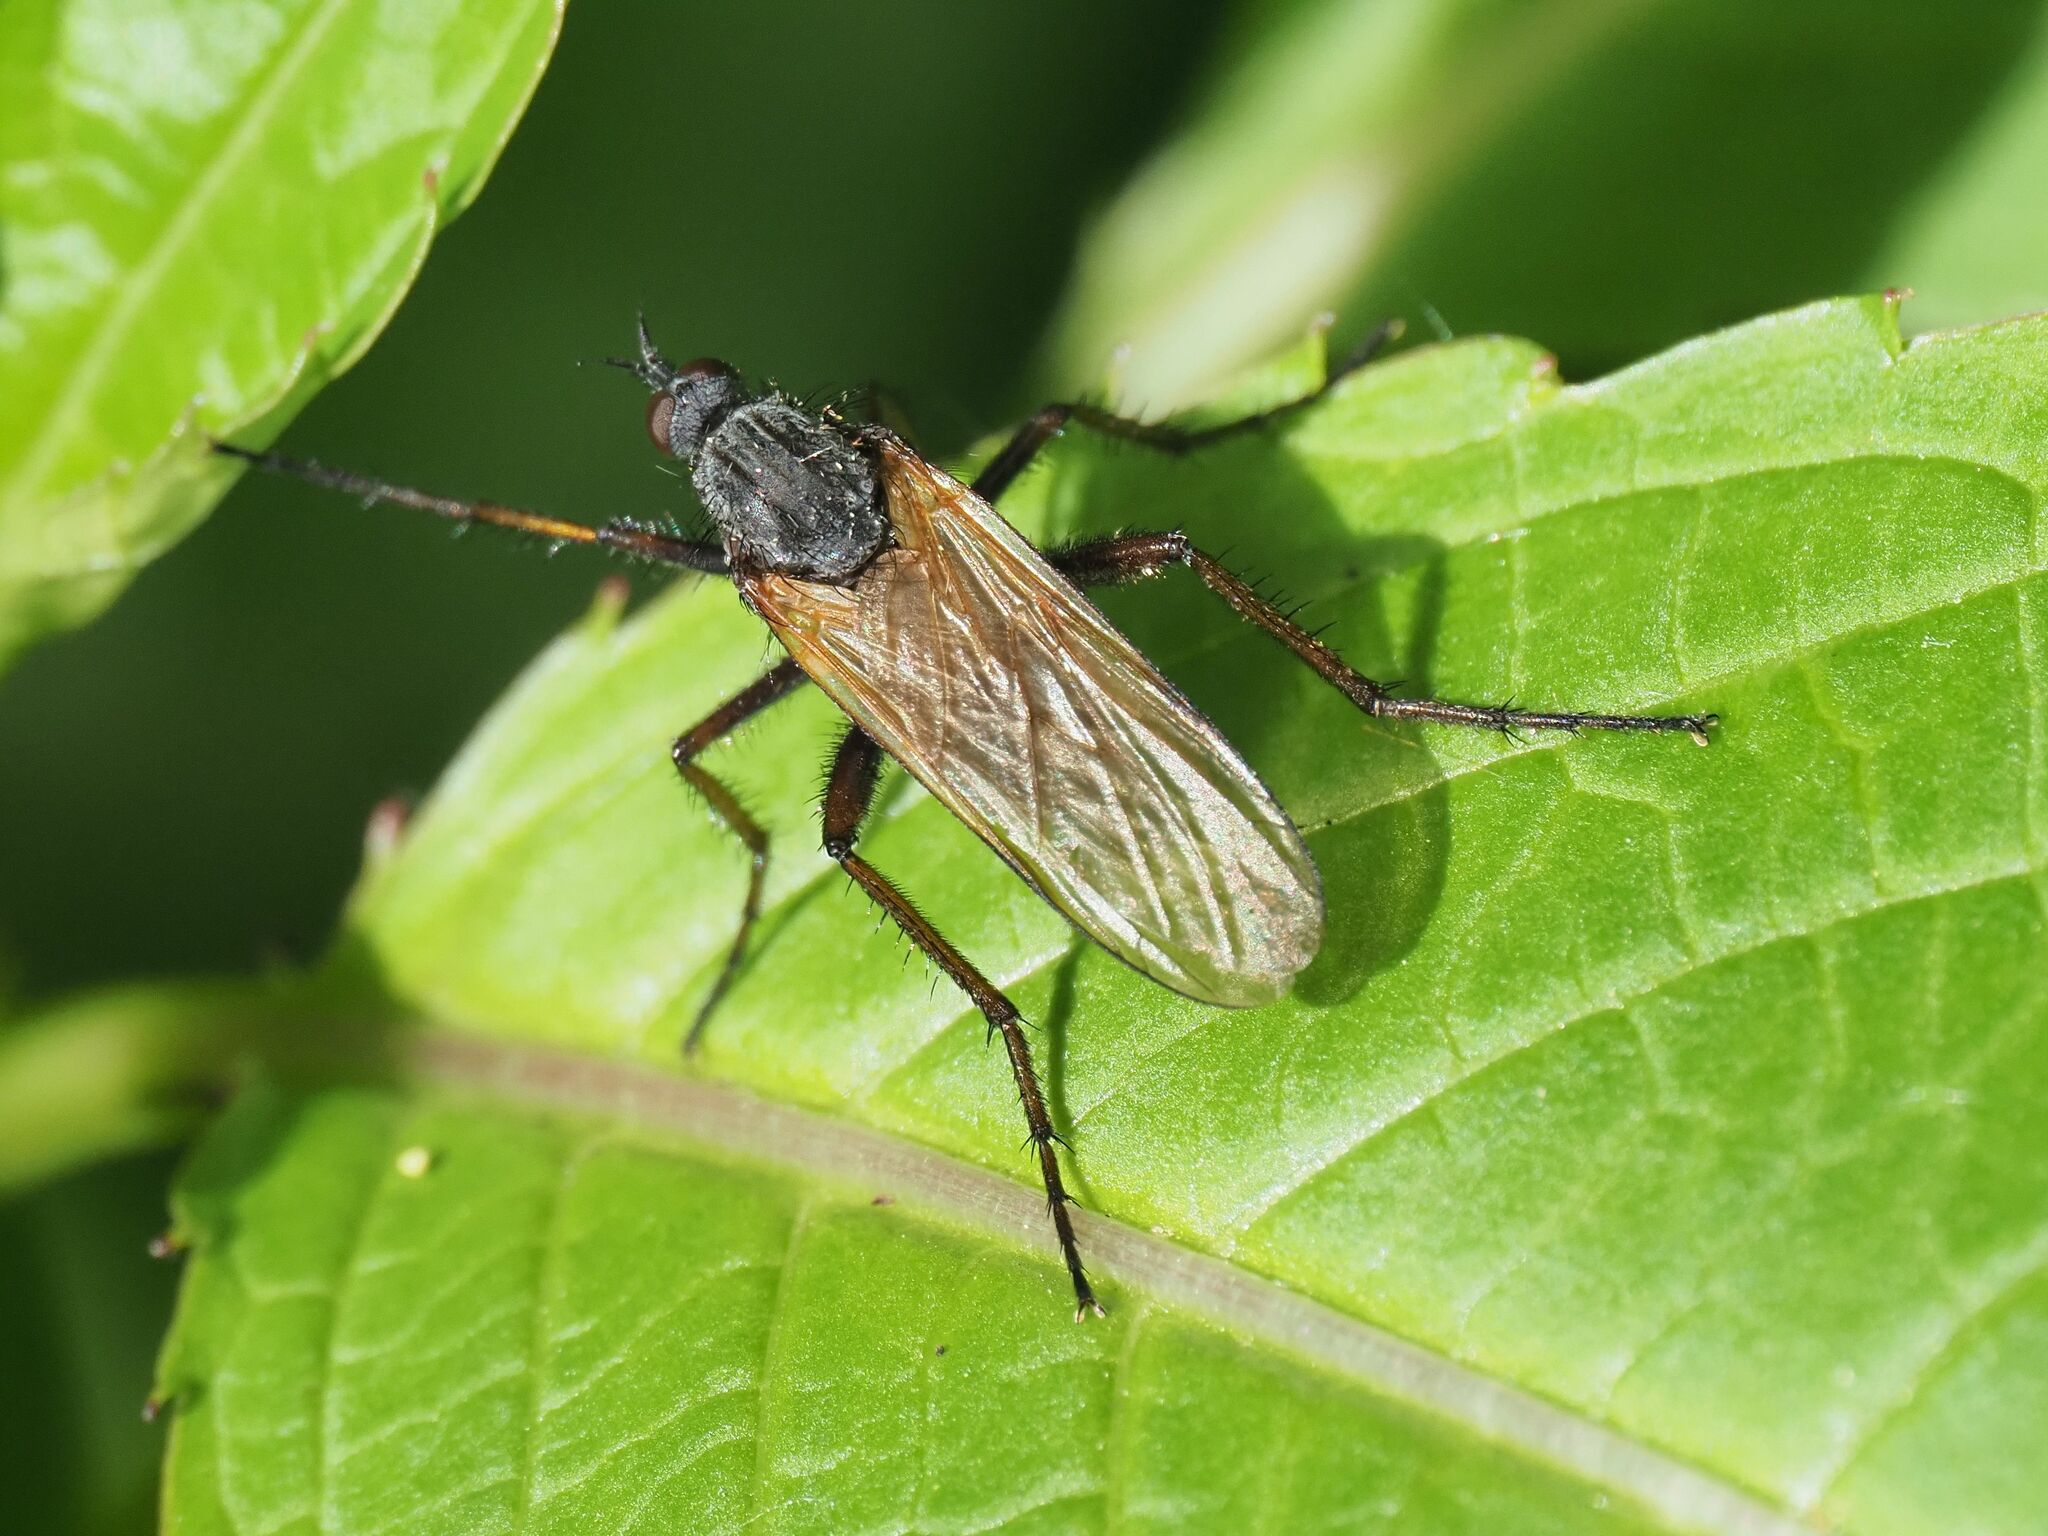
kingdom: Animalia
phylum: Arthropoda
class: Insecta
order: Diptera
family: Empididae
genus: Empis
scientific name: Empis tessellata
